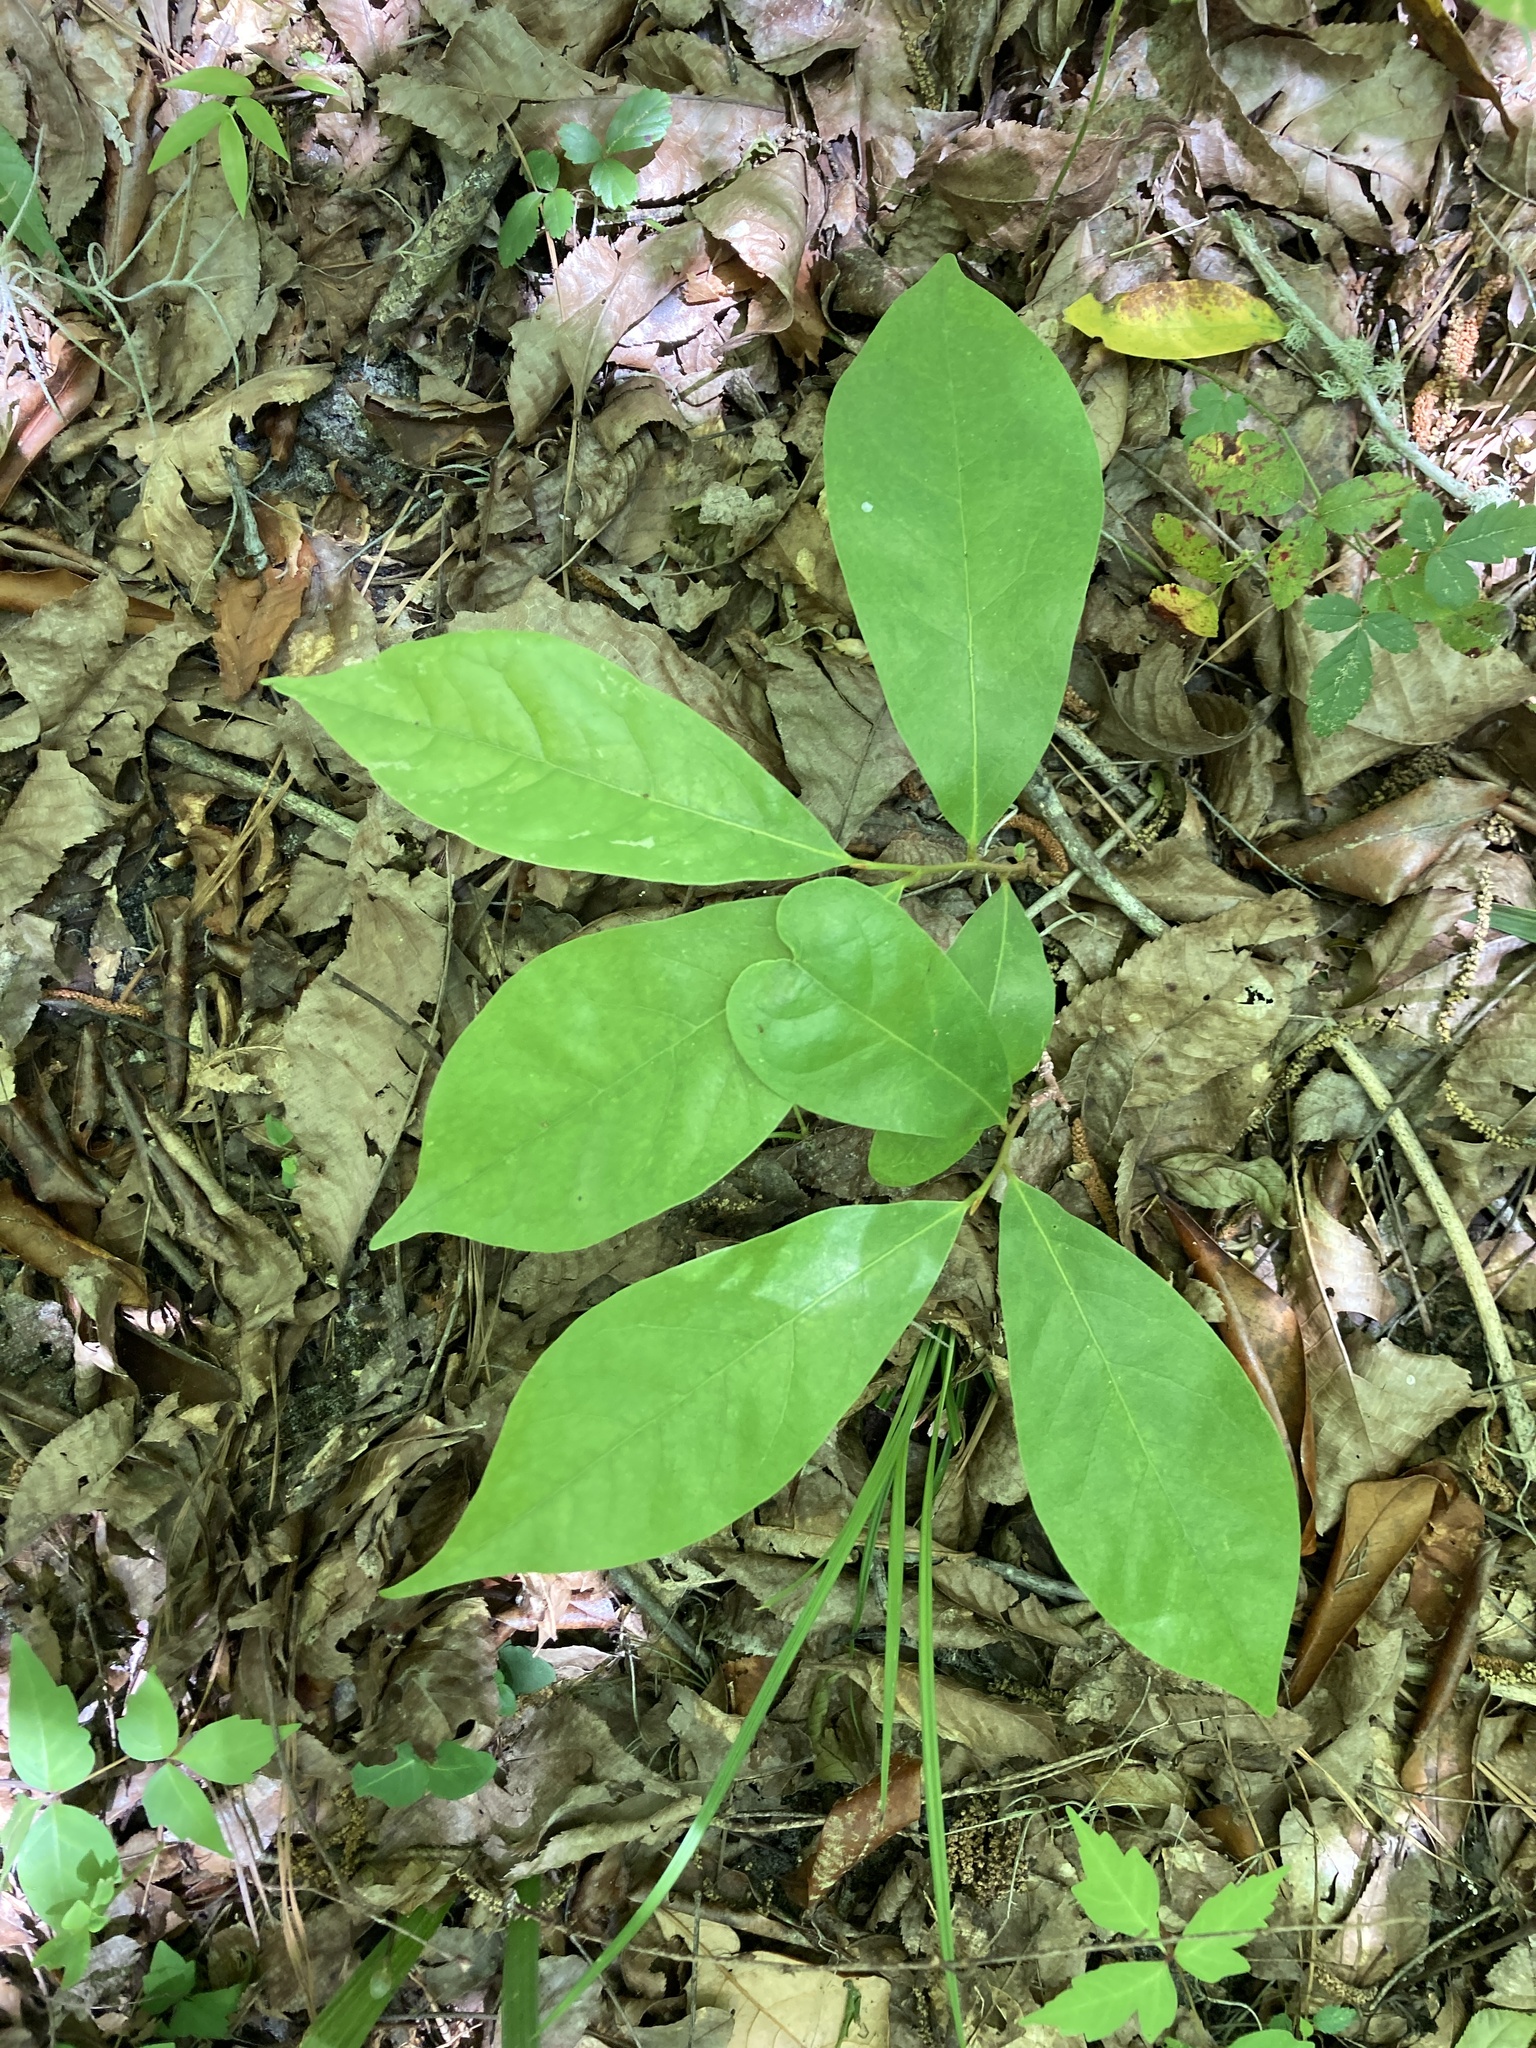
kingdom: Plantae
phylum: Tracheophyta
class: Magnoliopsida
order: Magnoliales
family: Annonaceae
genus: Asimina
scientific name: Asimina parviflora
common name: Dwarf pawpaw
